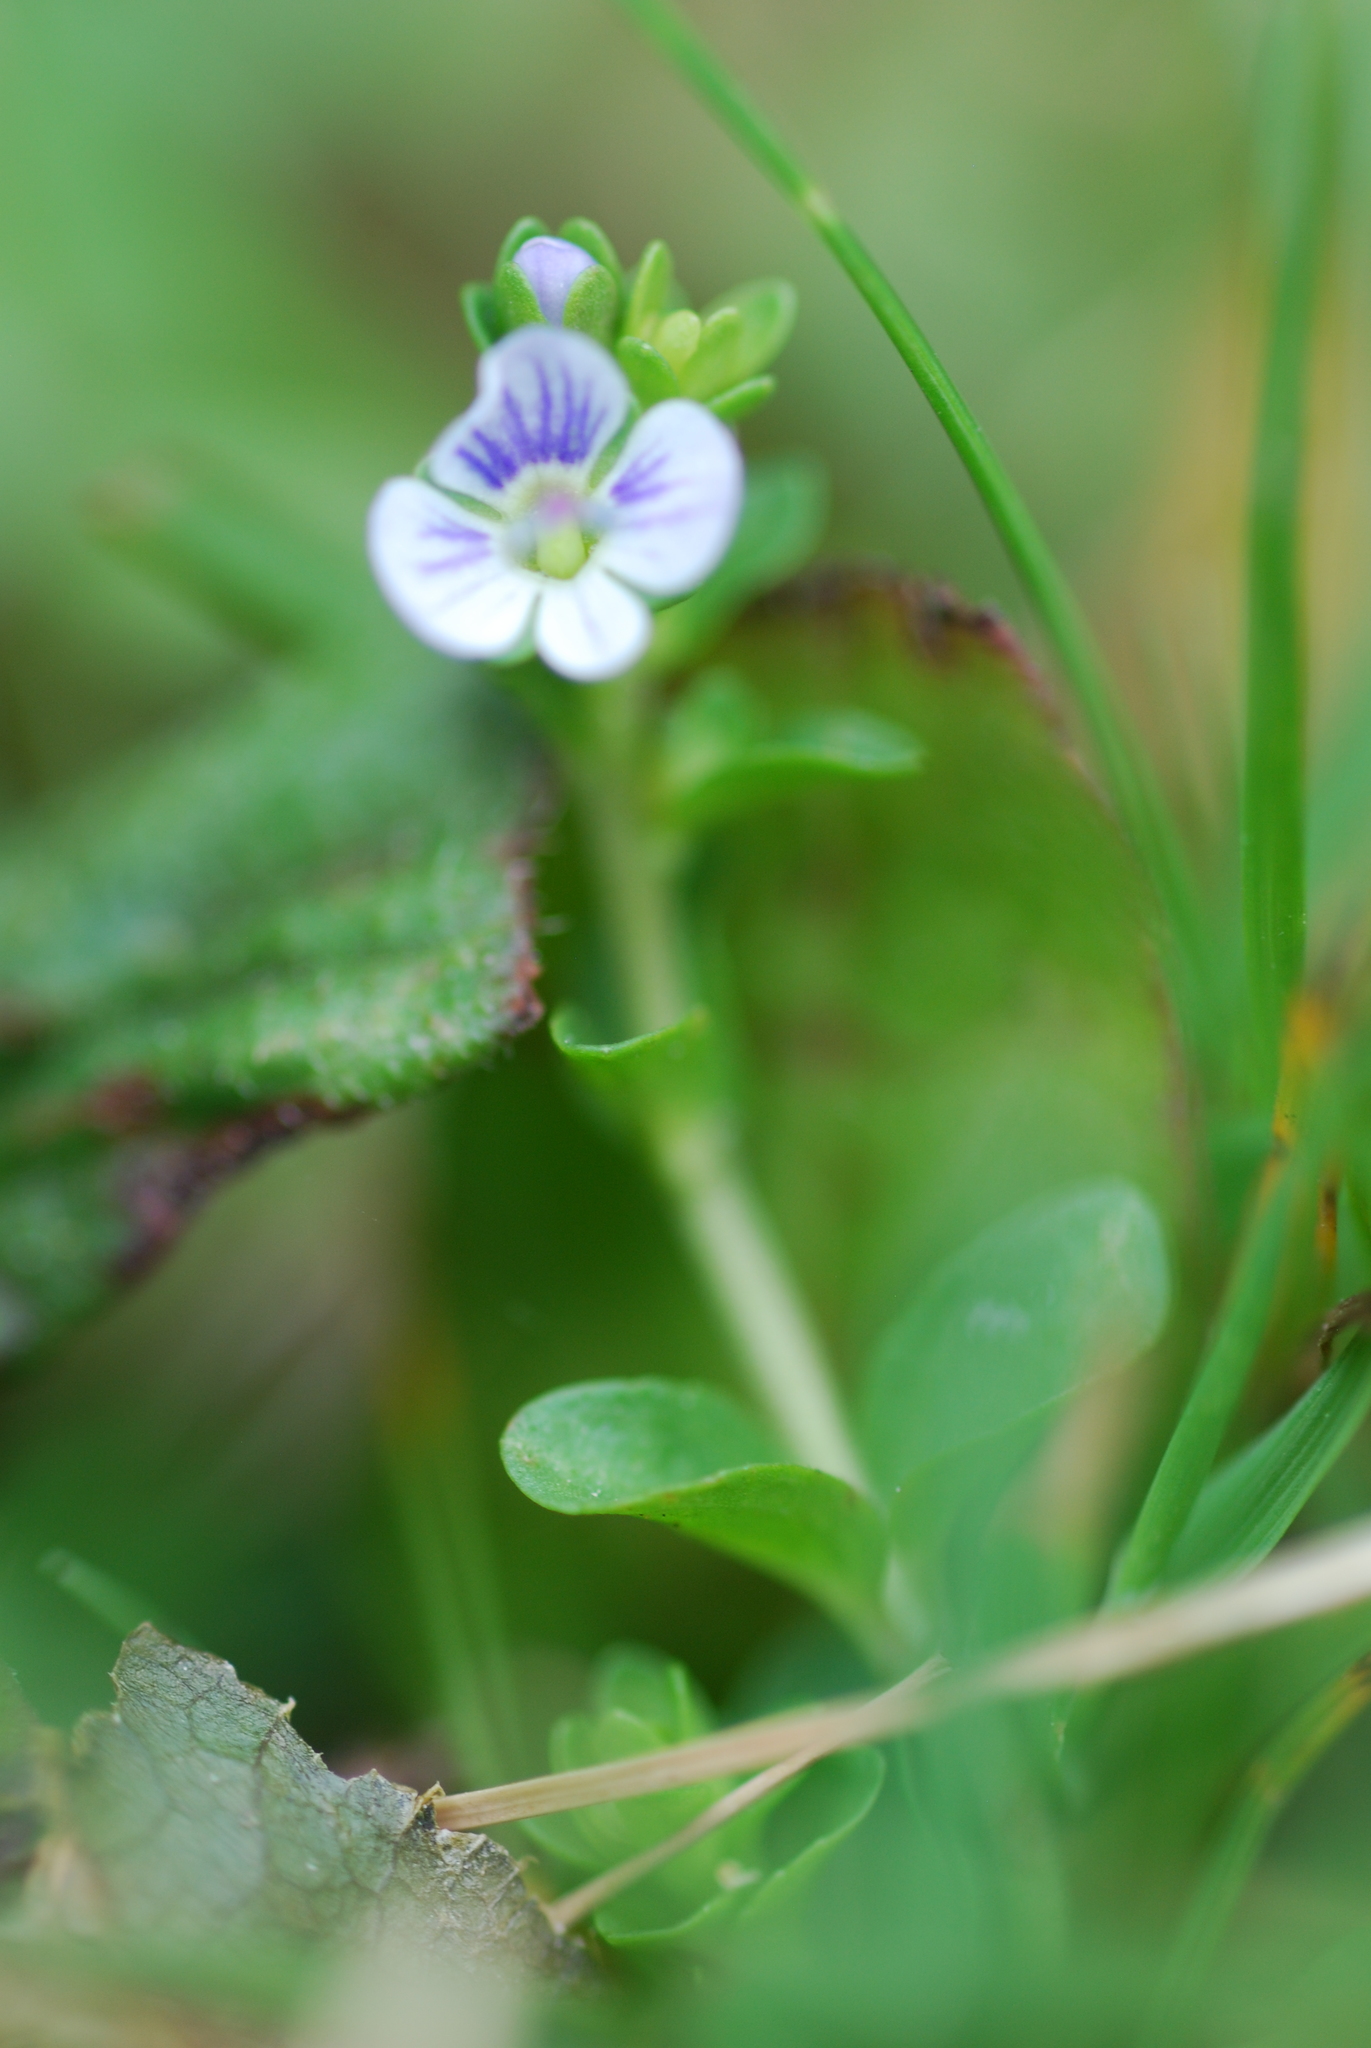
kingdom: Plantae
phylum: Tracheophyta
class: Magnoliopsida
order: Lamiales
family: Plantaginaceae
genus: Veronica
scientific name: Veronica serpyllifolia
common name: Thyme-leaved speedwell
